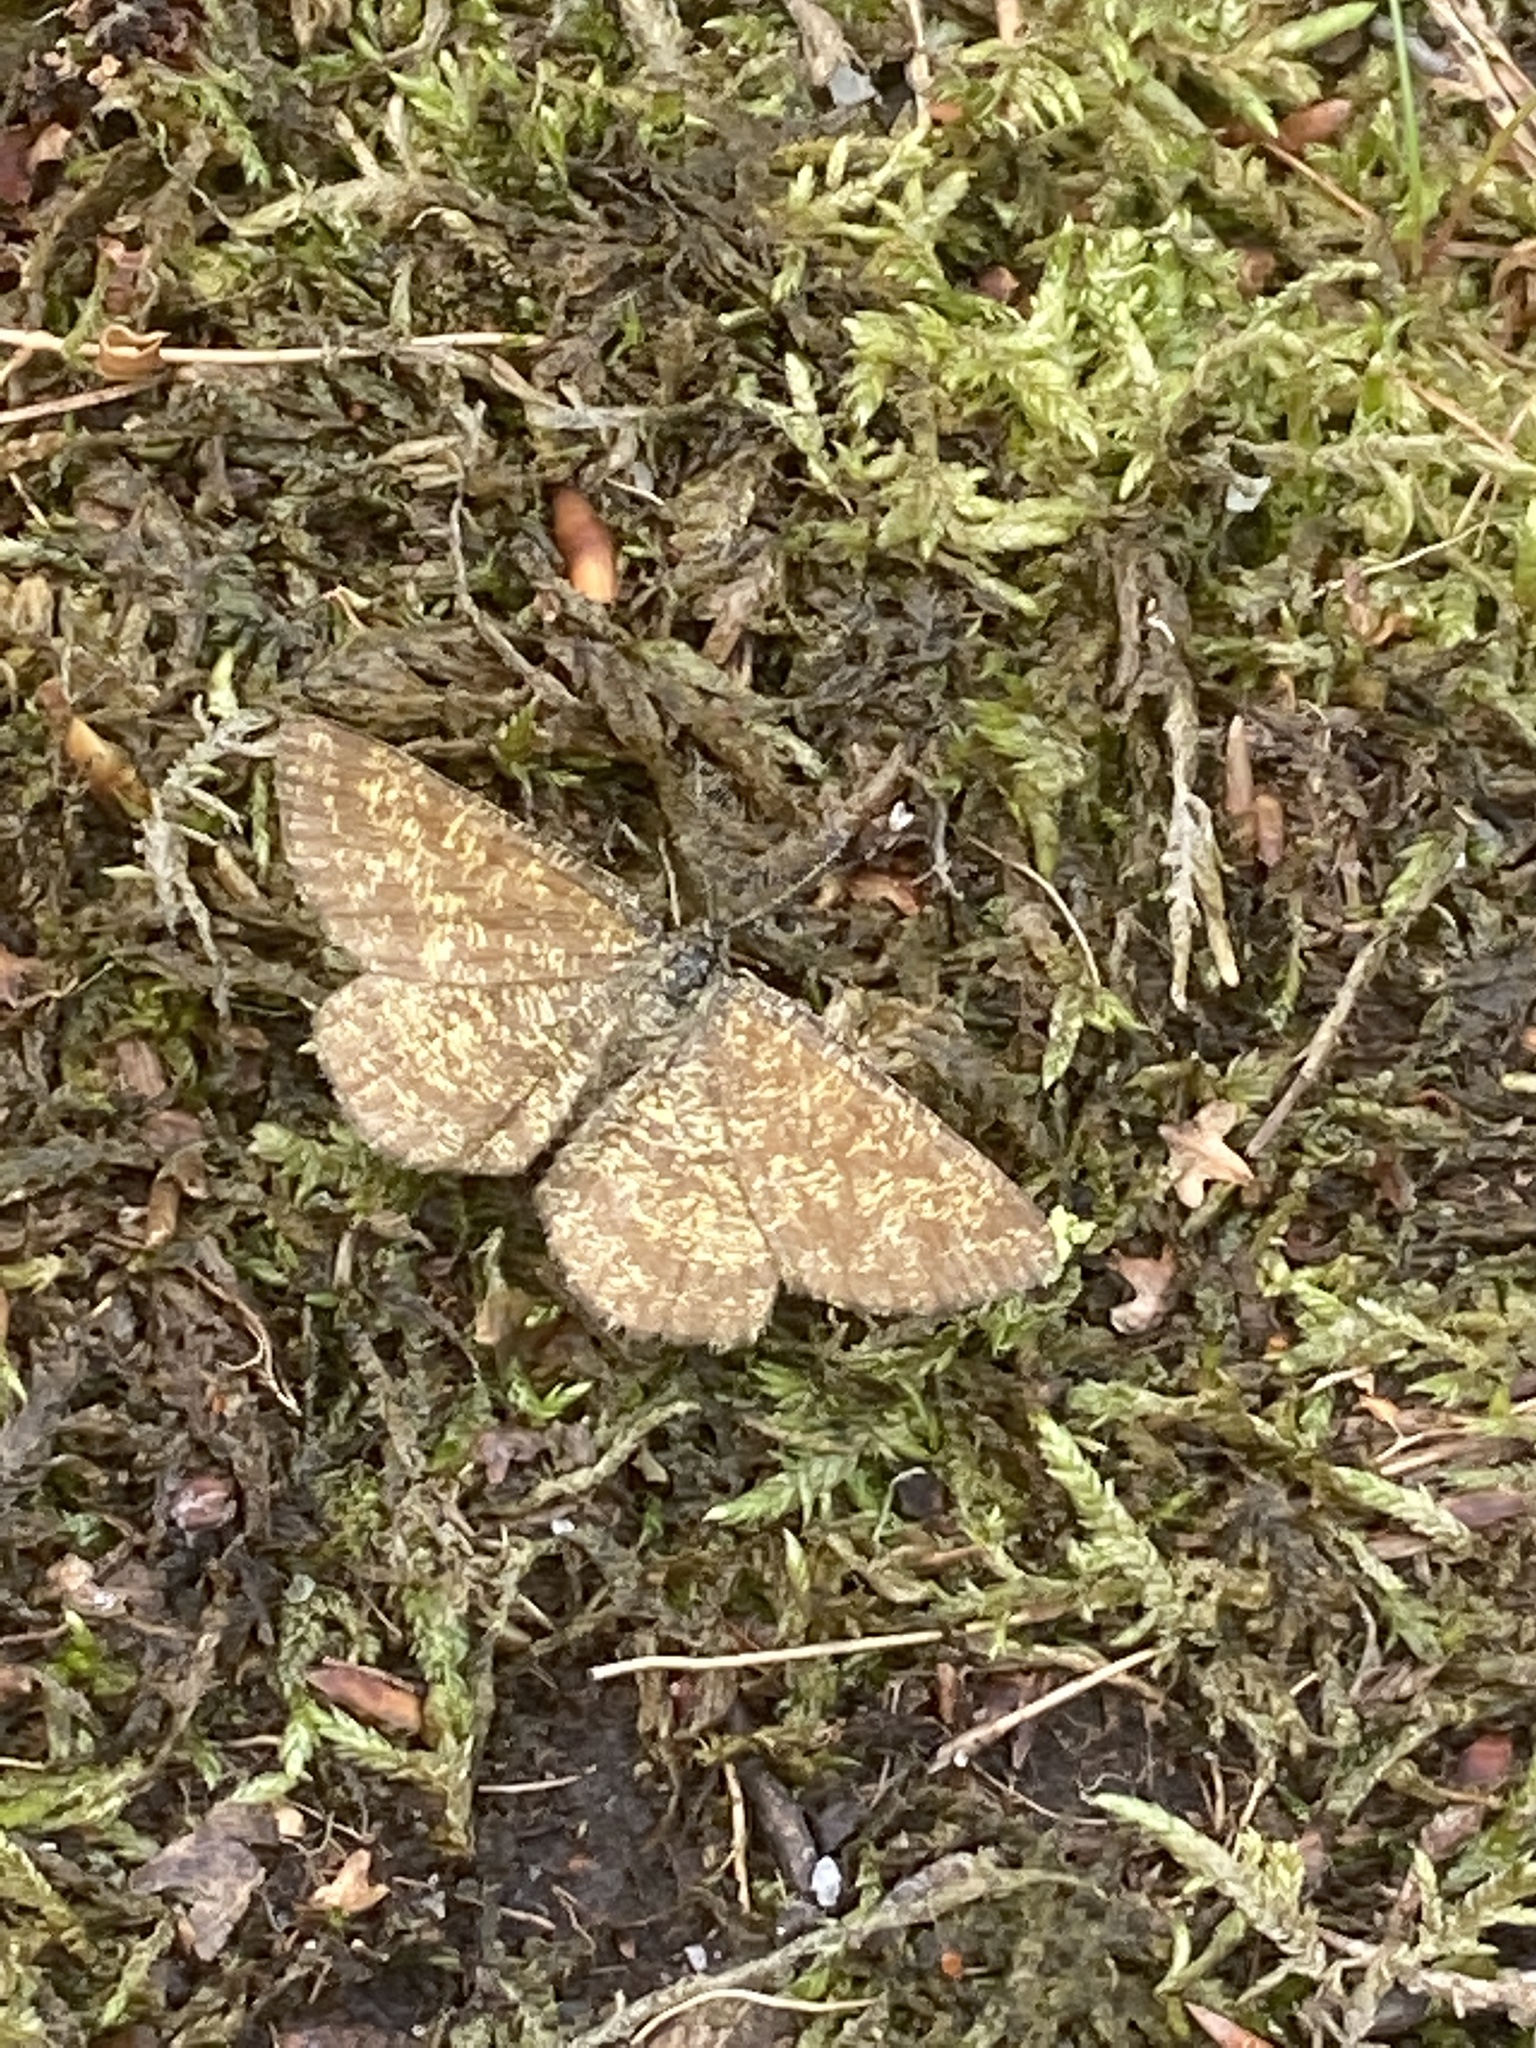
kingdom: Animalia
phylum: Arthropoda
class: Insecta
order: Lepidoptera
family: Geometridae
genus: Ematurga
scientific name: Ematurga atomaria
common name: Common heath
